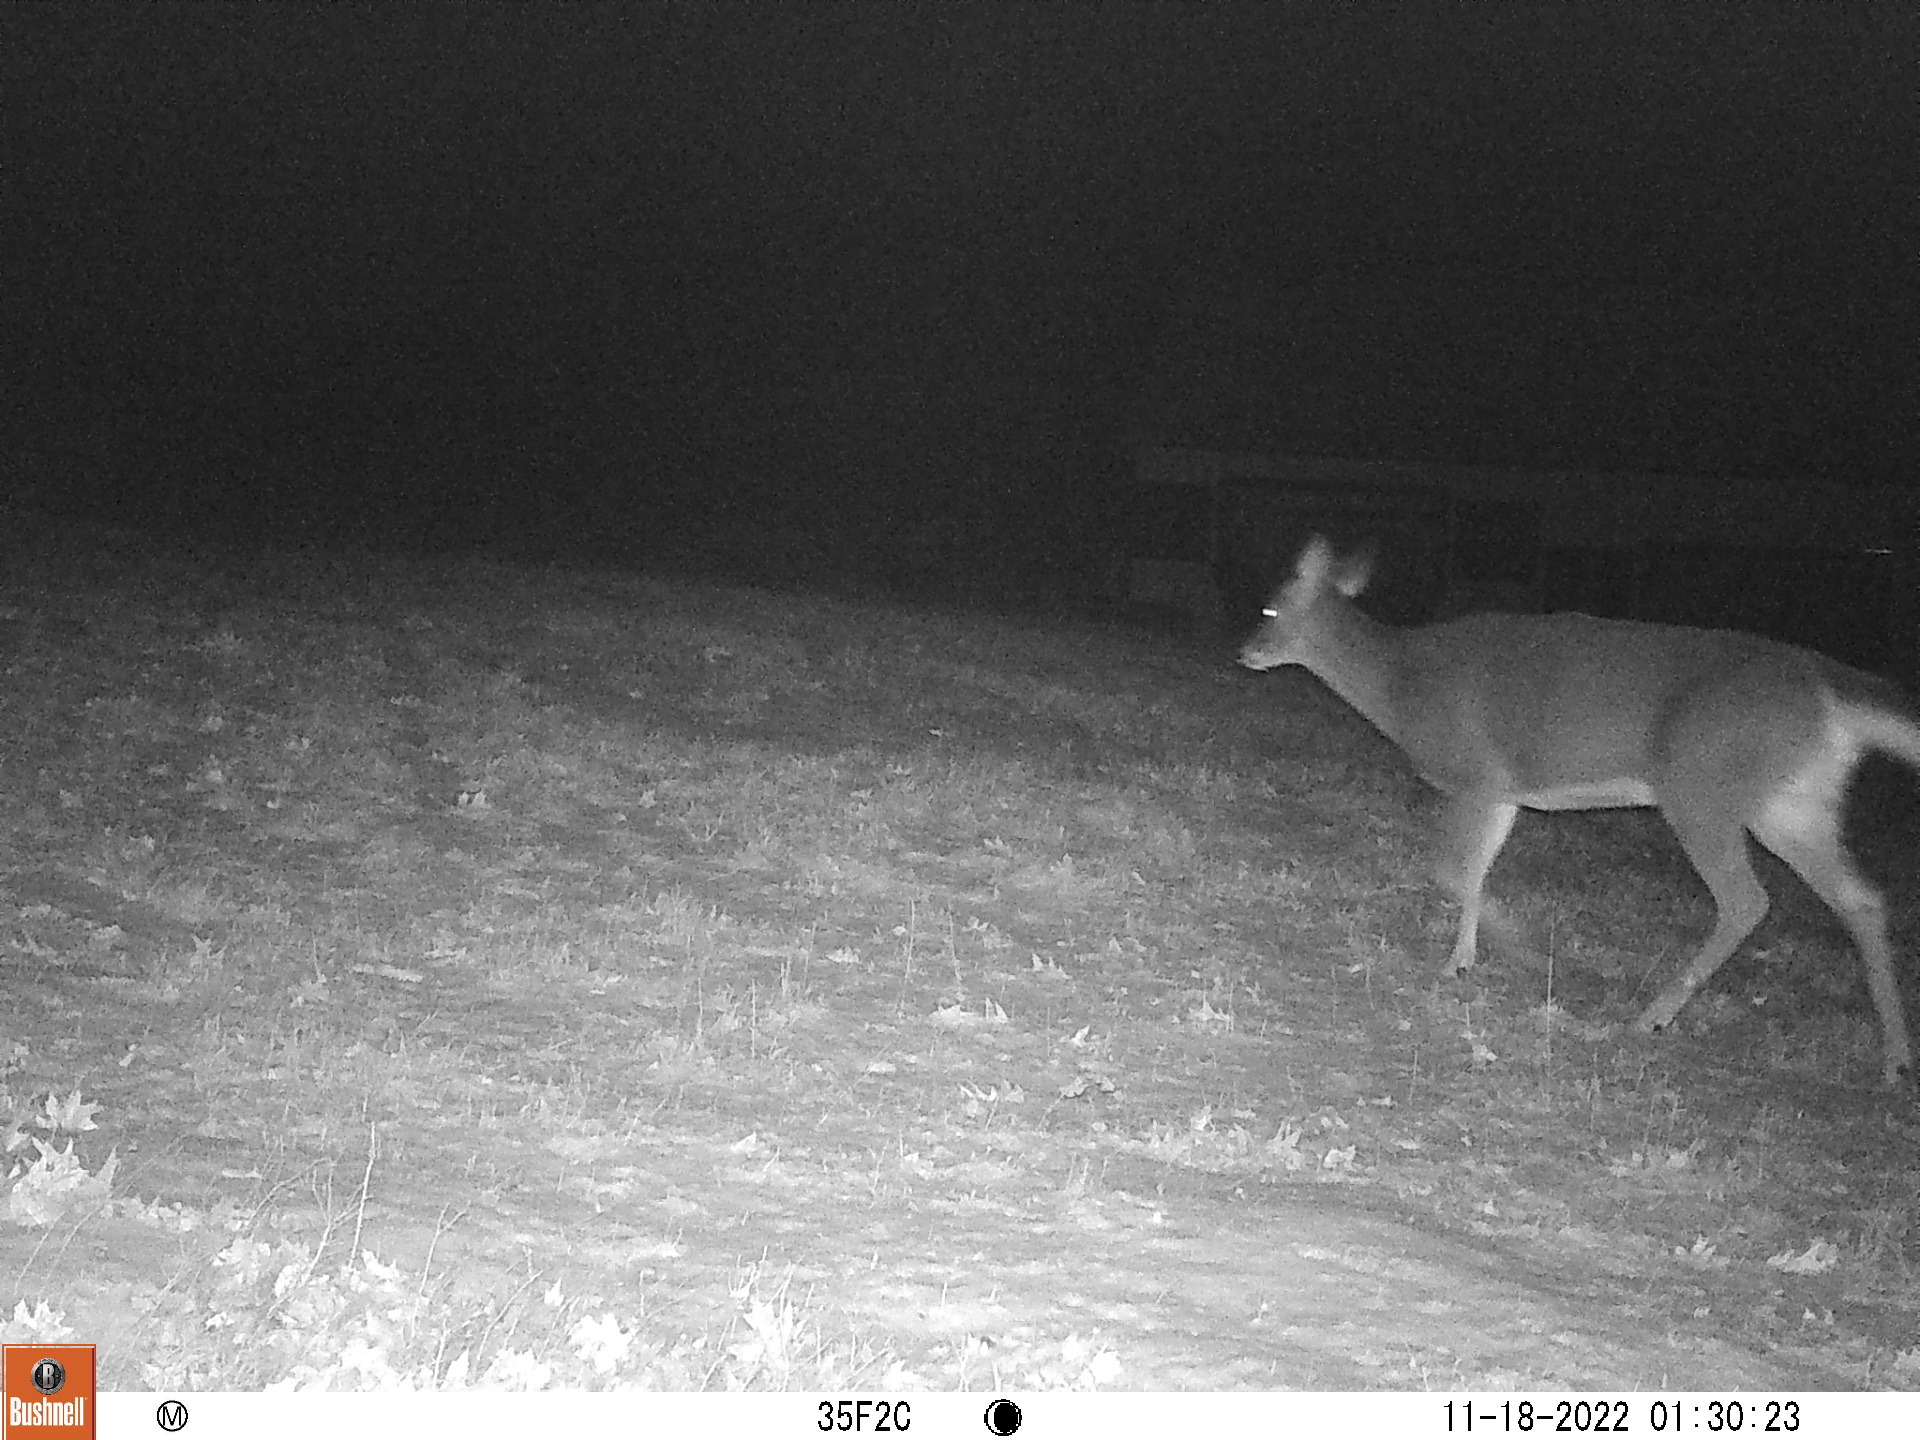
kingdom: Animalia
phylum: Chordata
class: Mammalia
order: Artiodactyla
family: Cervidae
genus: Odocoileus
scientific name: Odocoileus virginianus
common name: White-tailed deer
